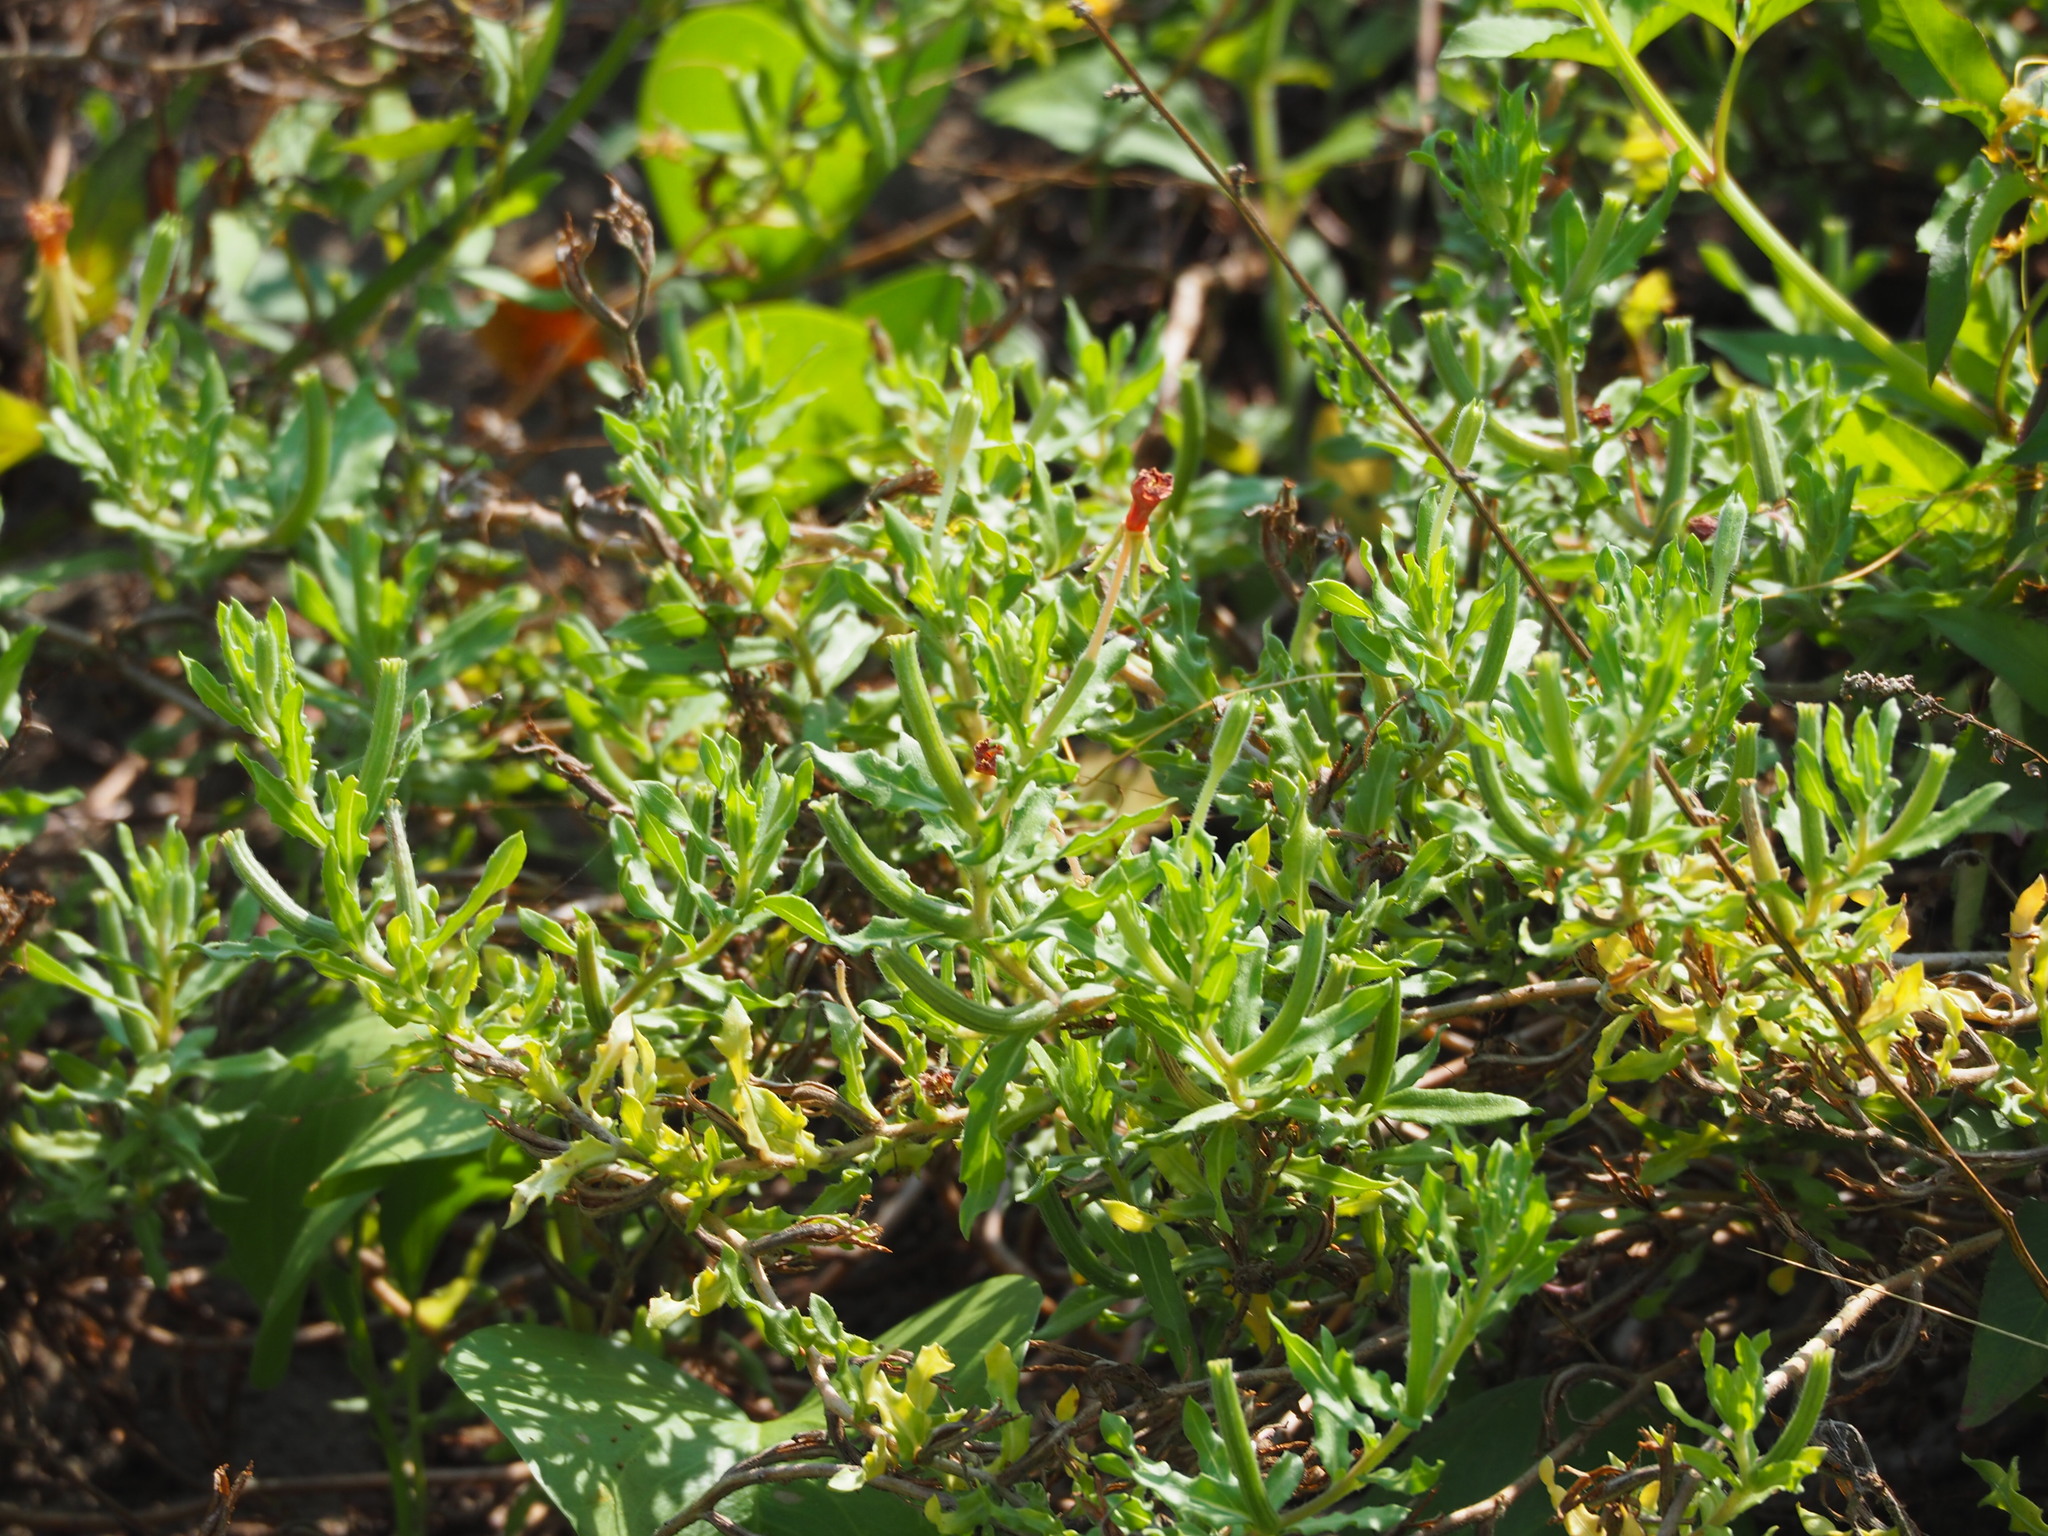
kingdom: Plantae
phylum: Tracheophyta
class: Magnoliopsida
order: Myrtales
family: Onagraceae
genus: Oenothera
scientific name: Oenothera laciniata
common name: Cut-leaved evening-primrose
